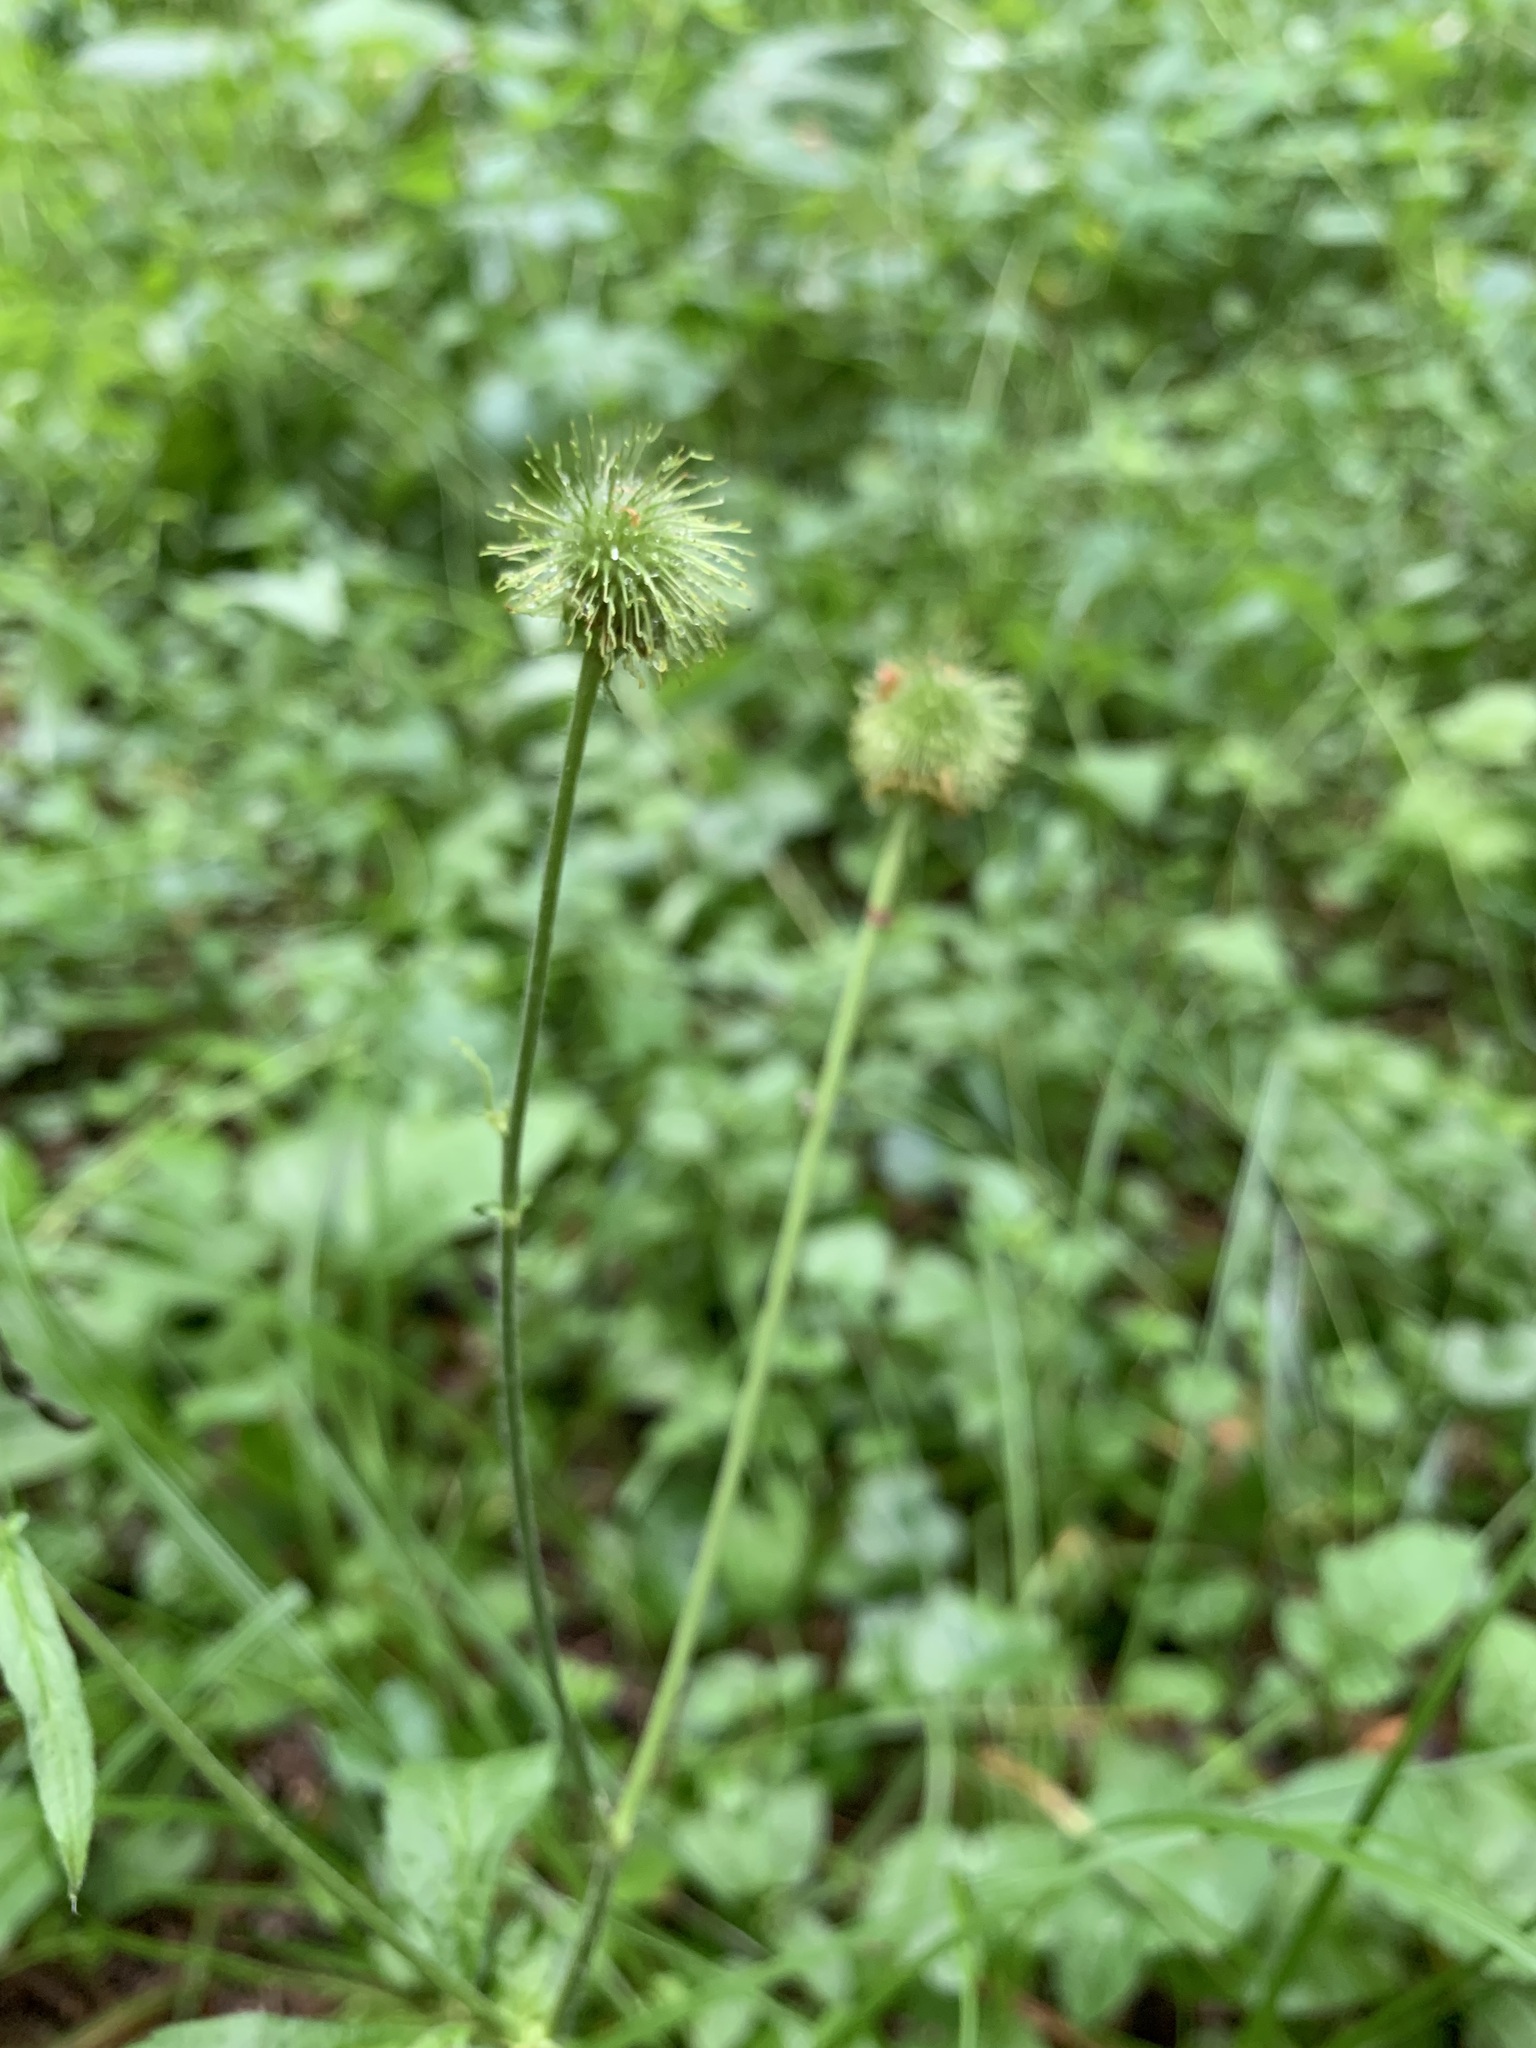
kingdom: Plantae
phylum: Tracheophyta
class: Magnoliopsida
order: Rosales
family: Rosaceae
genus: Geum
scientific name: Geum aleppicum
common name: Yellow avens
